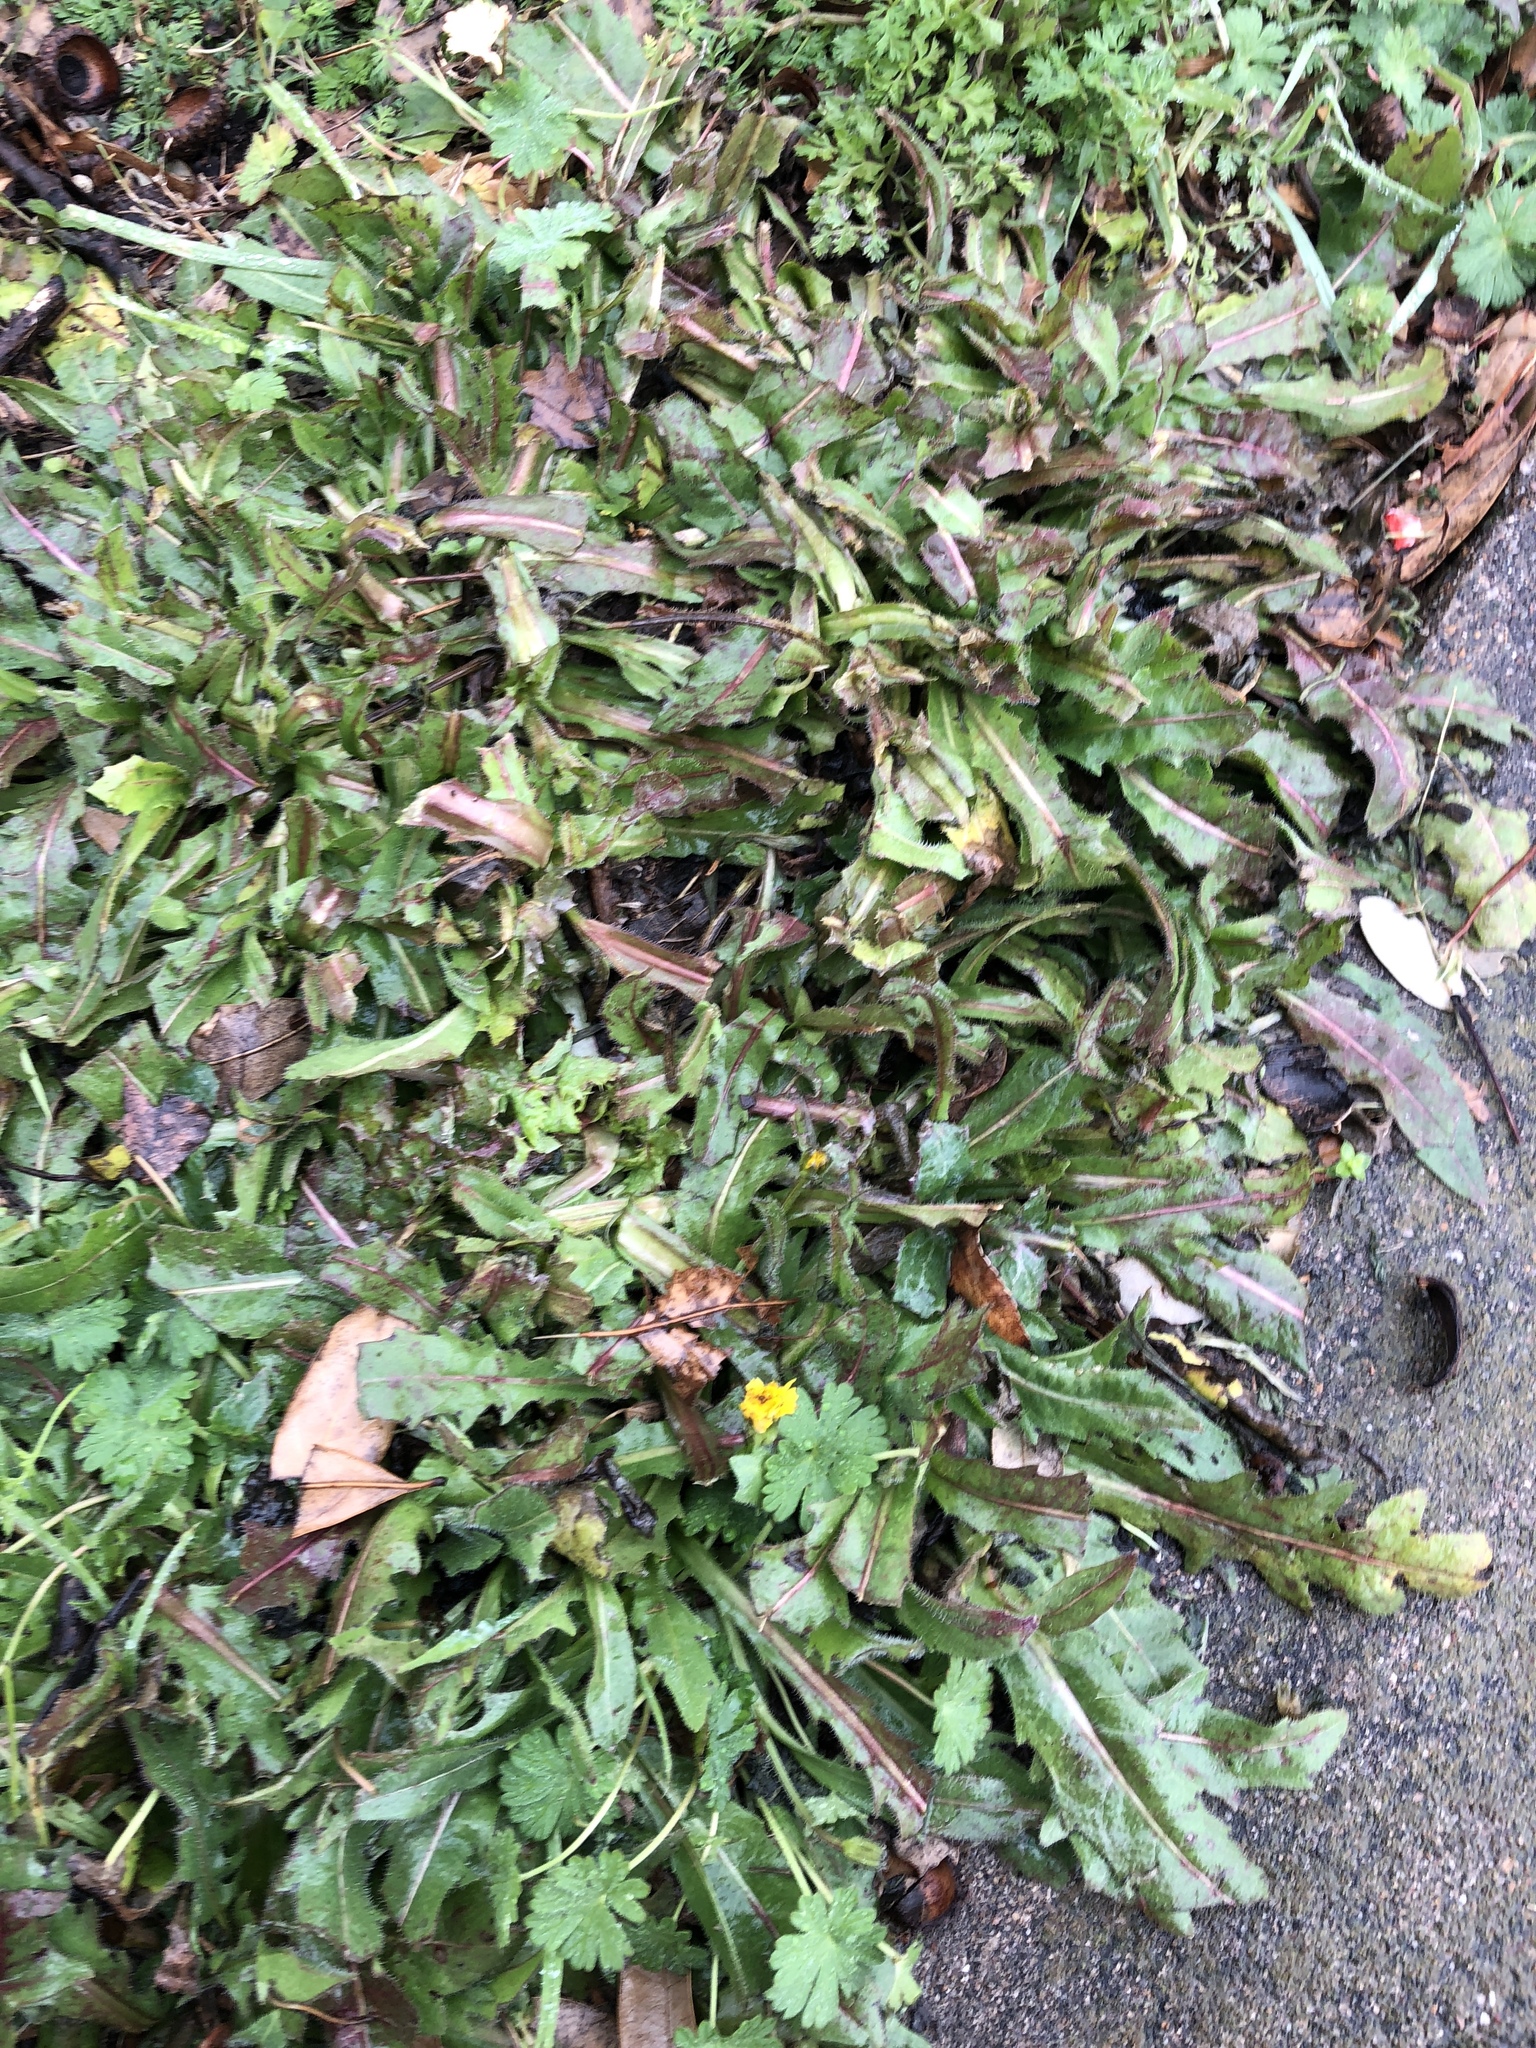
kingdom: Plantae
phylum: Tracheophyta
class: Magnoliopsida
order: Asterales
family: Asteraceae
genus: Hedypnois
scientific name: Hedypnois rhagadioloides
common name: Cretan weed
